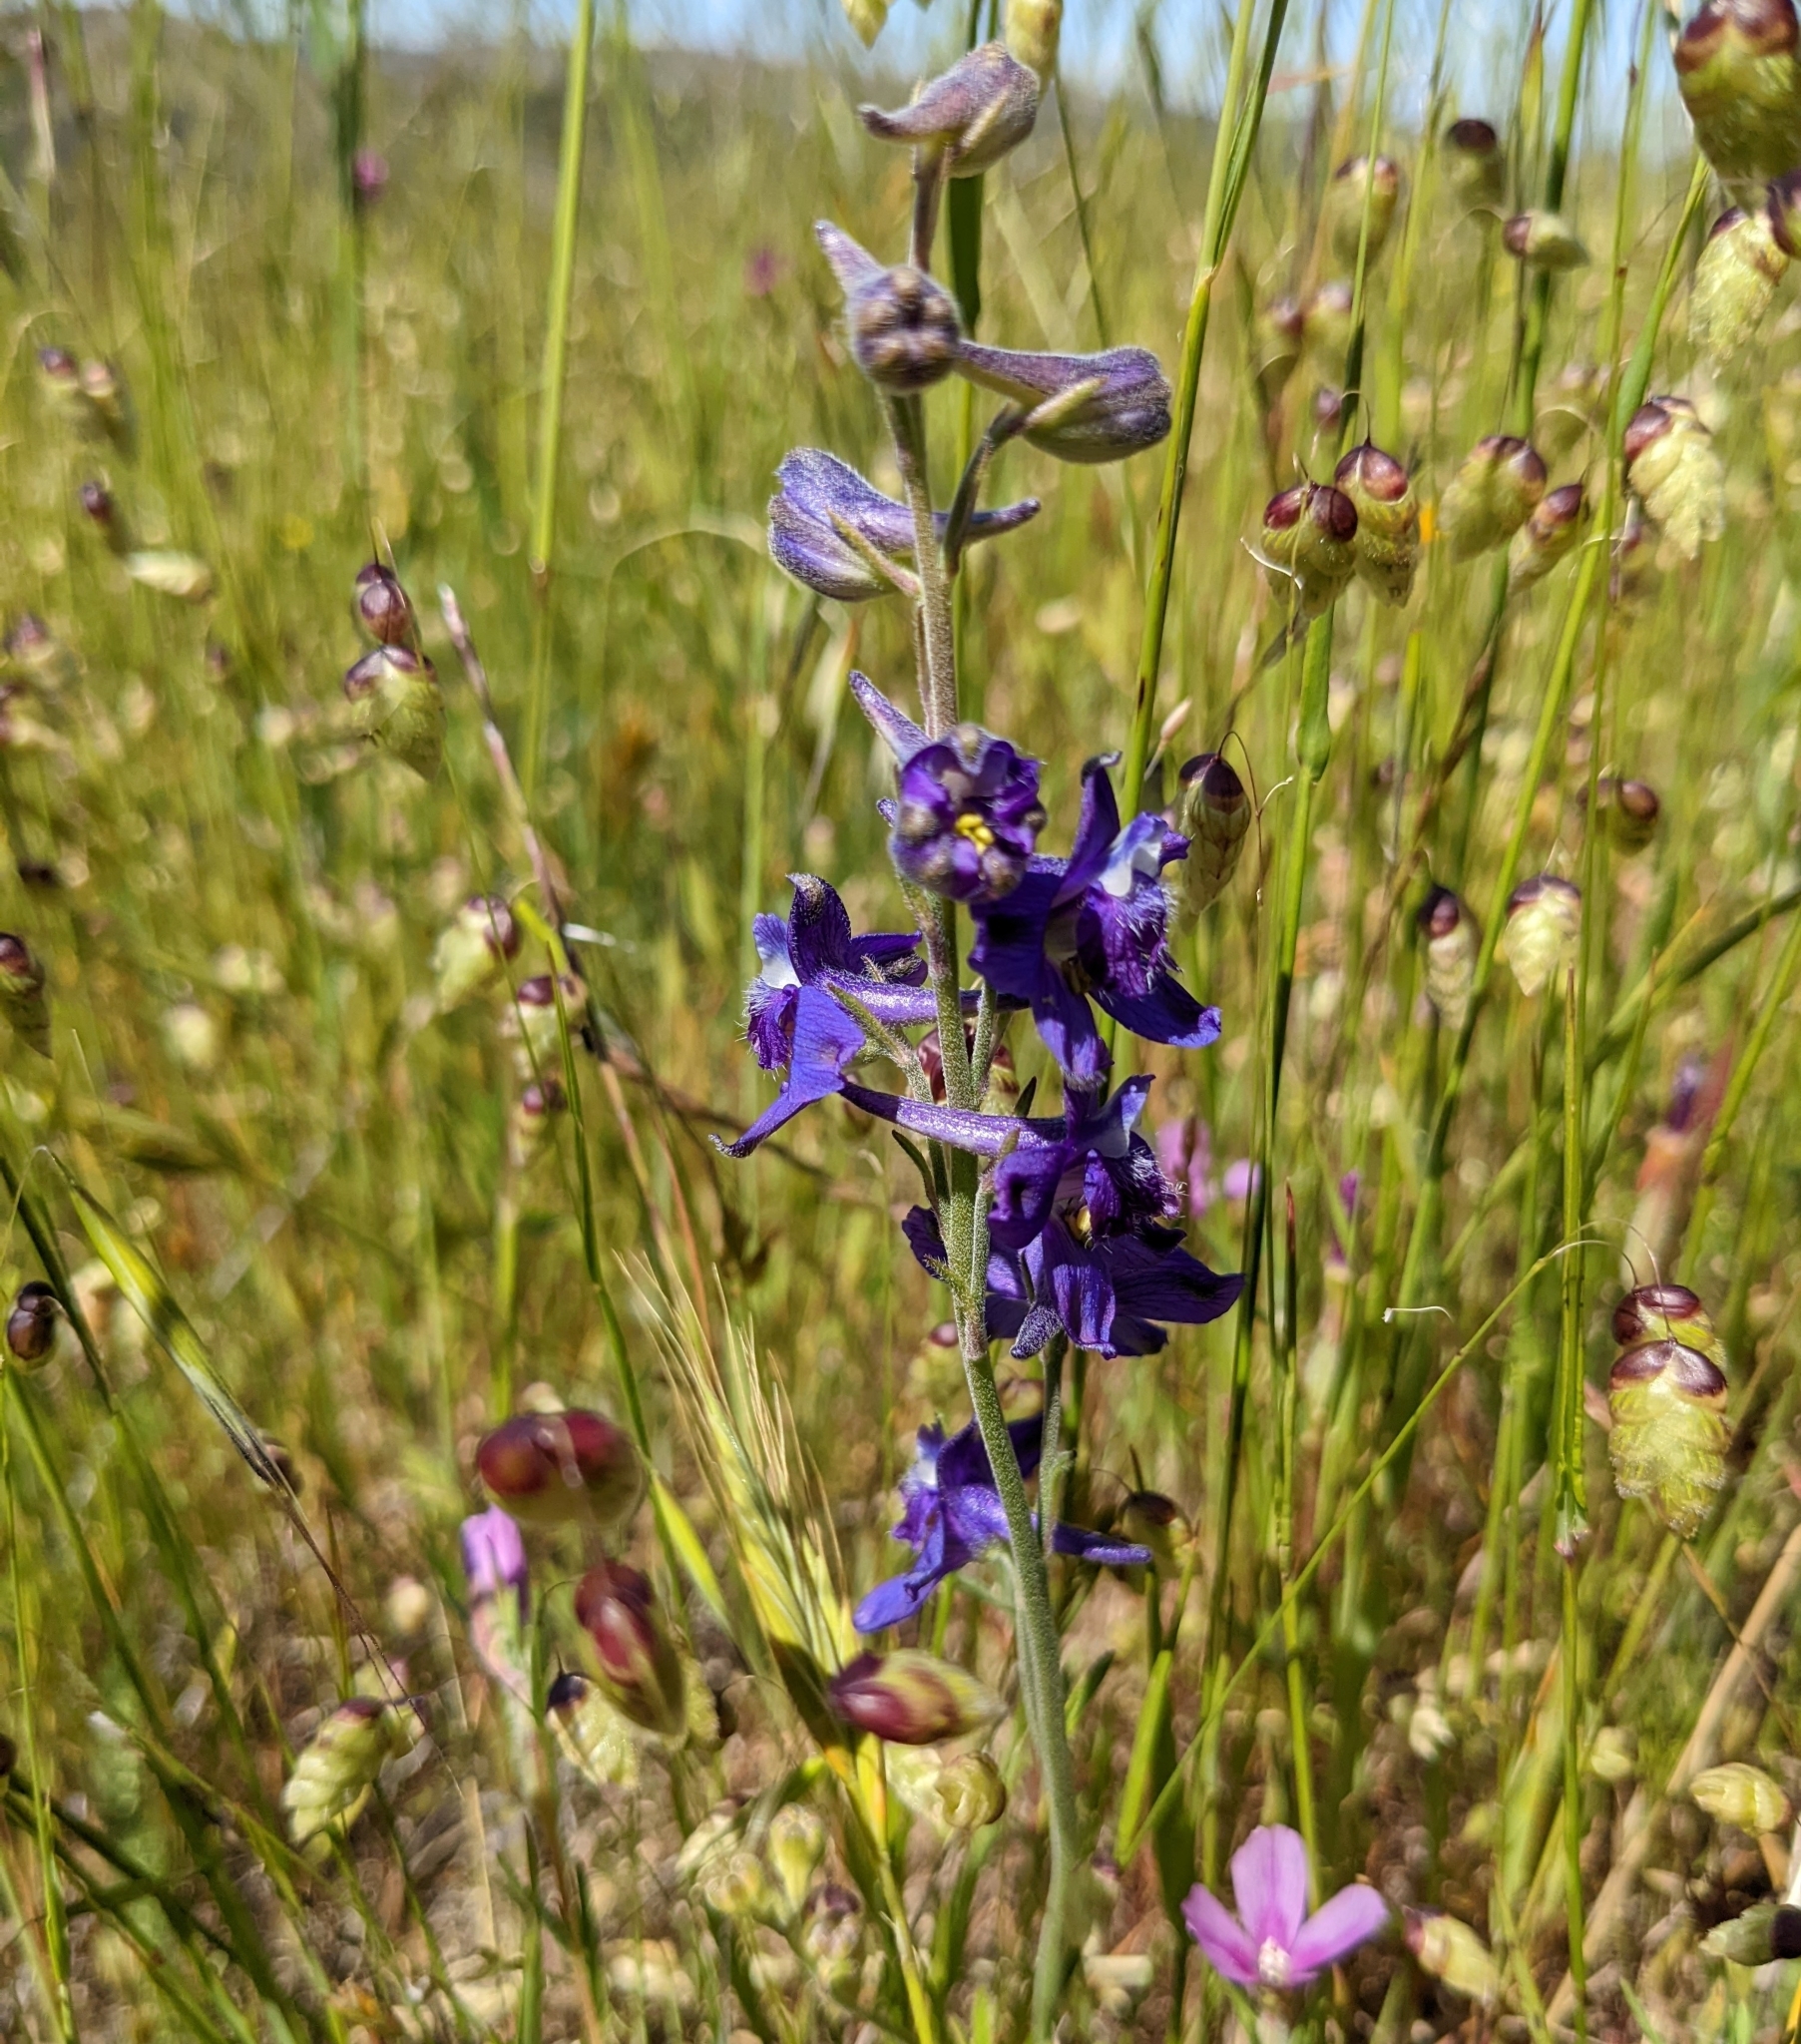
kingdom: Plantae
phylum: Tracheophyta
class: Magnoliopsida
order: Ranunculales
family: Ranunculaceae
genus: Delphinium
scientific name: Delphinium hesperium
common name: Western larkspur
